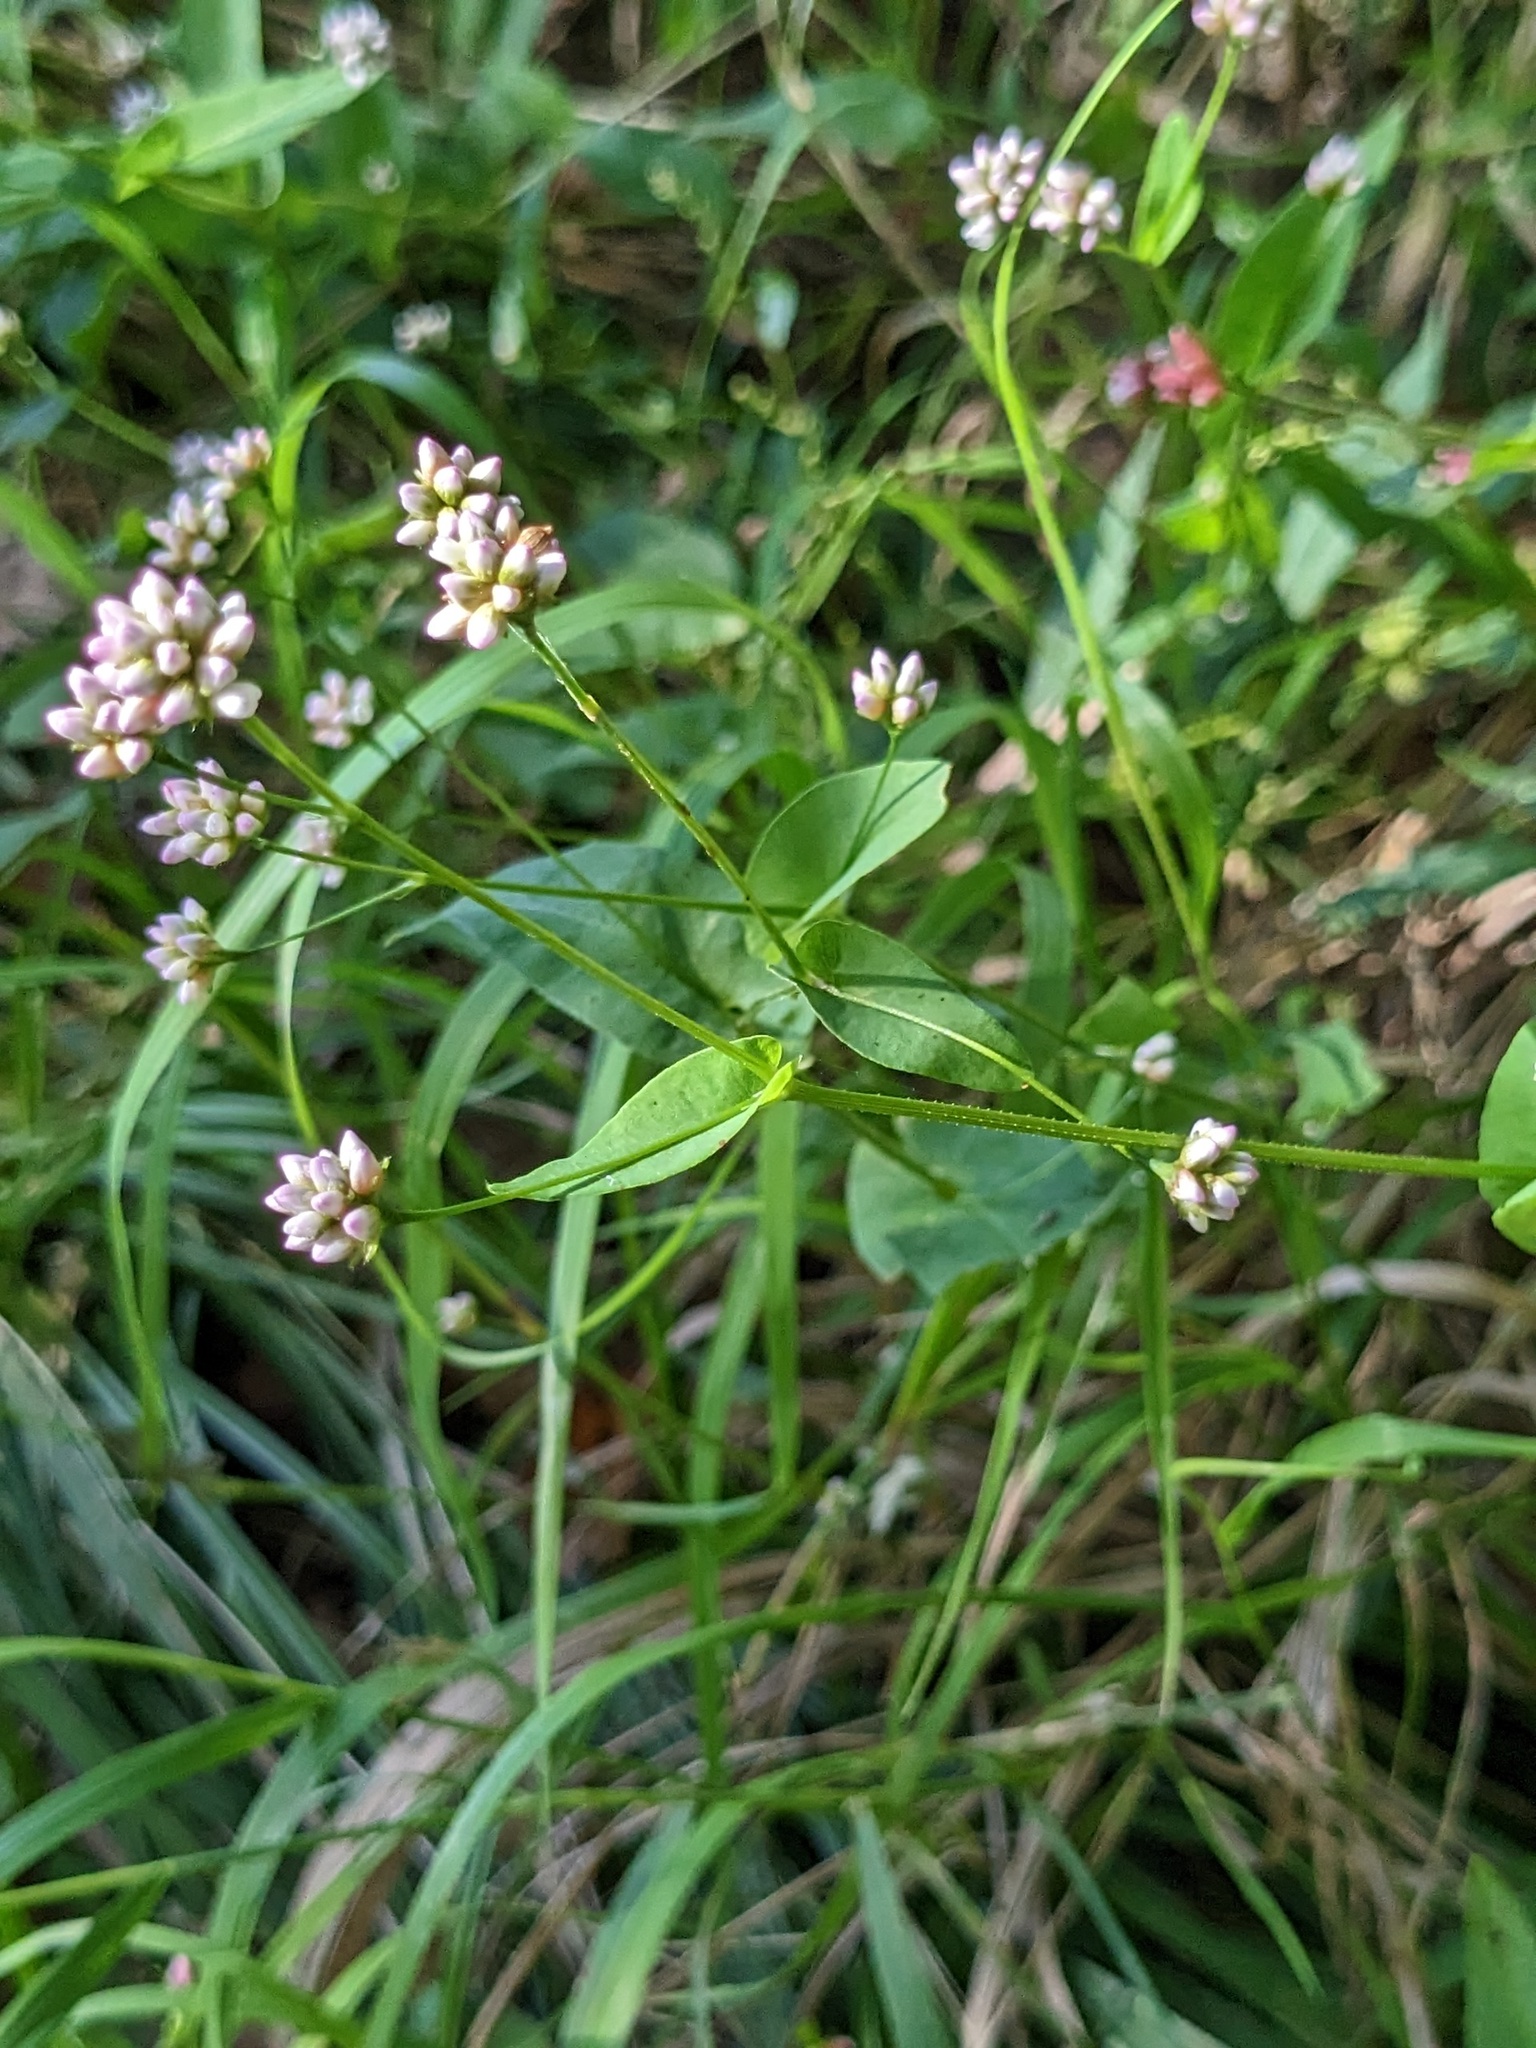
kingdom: Plantae
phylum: Tracheophyta
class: Magnoliopsida
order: Caryophyllales
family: Polygonaceae
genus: Persicaria
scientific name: Persicaria sagittata
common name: American tearthumb
